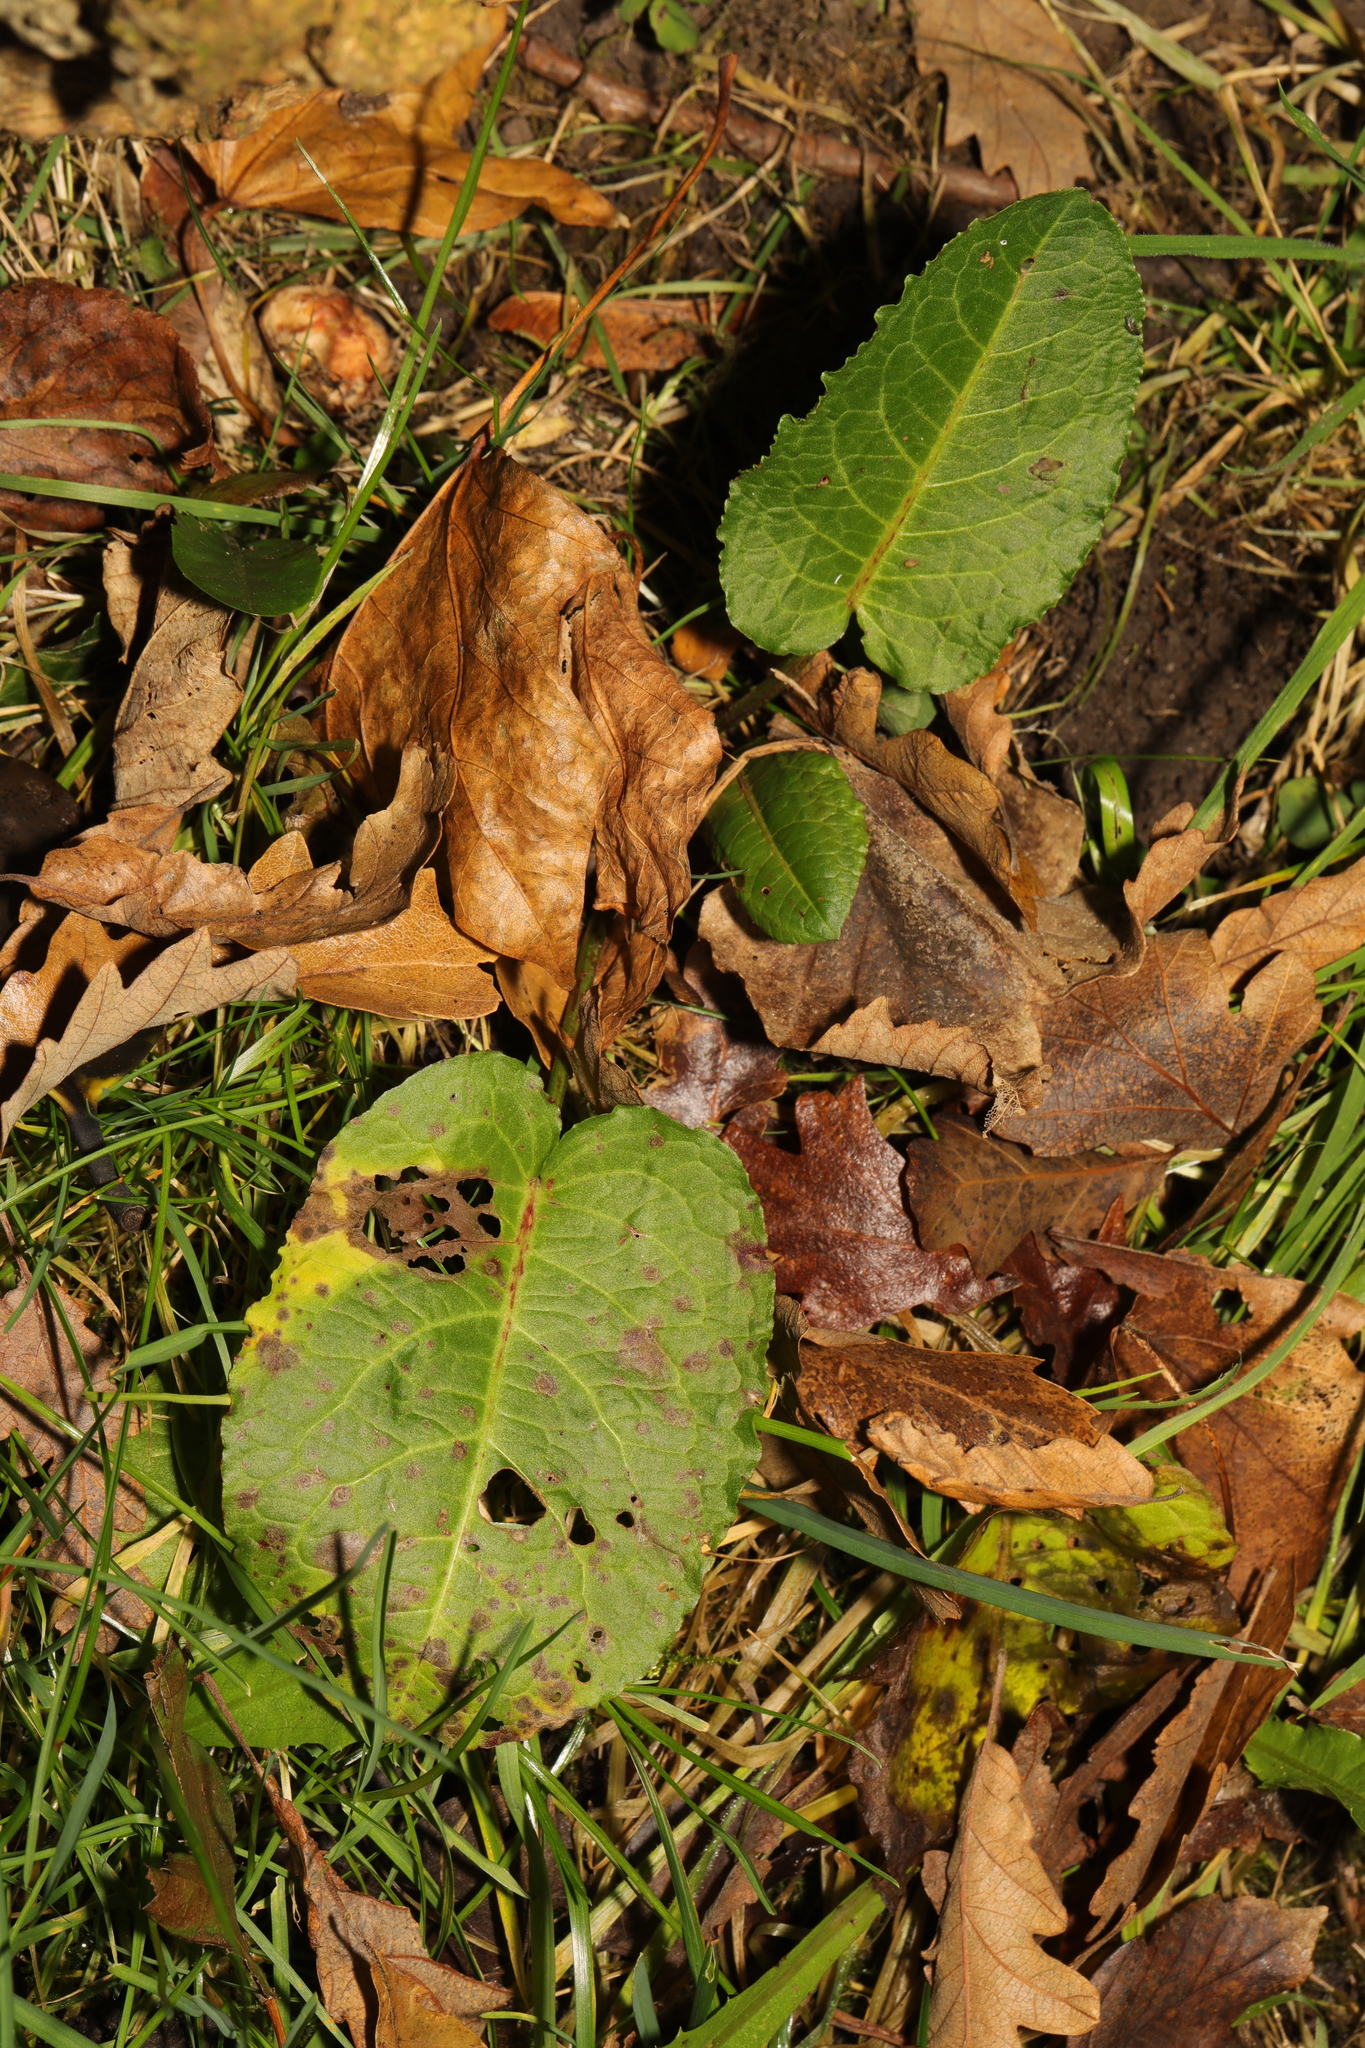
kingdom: Plantae
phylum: Tracheophyta
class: Magnoliopsida
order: Caryophyllales
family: Polygonaceae
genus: Rumex
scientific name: Rumex obtusifolius
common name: Bitter dock
